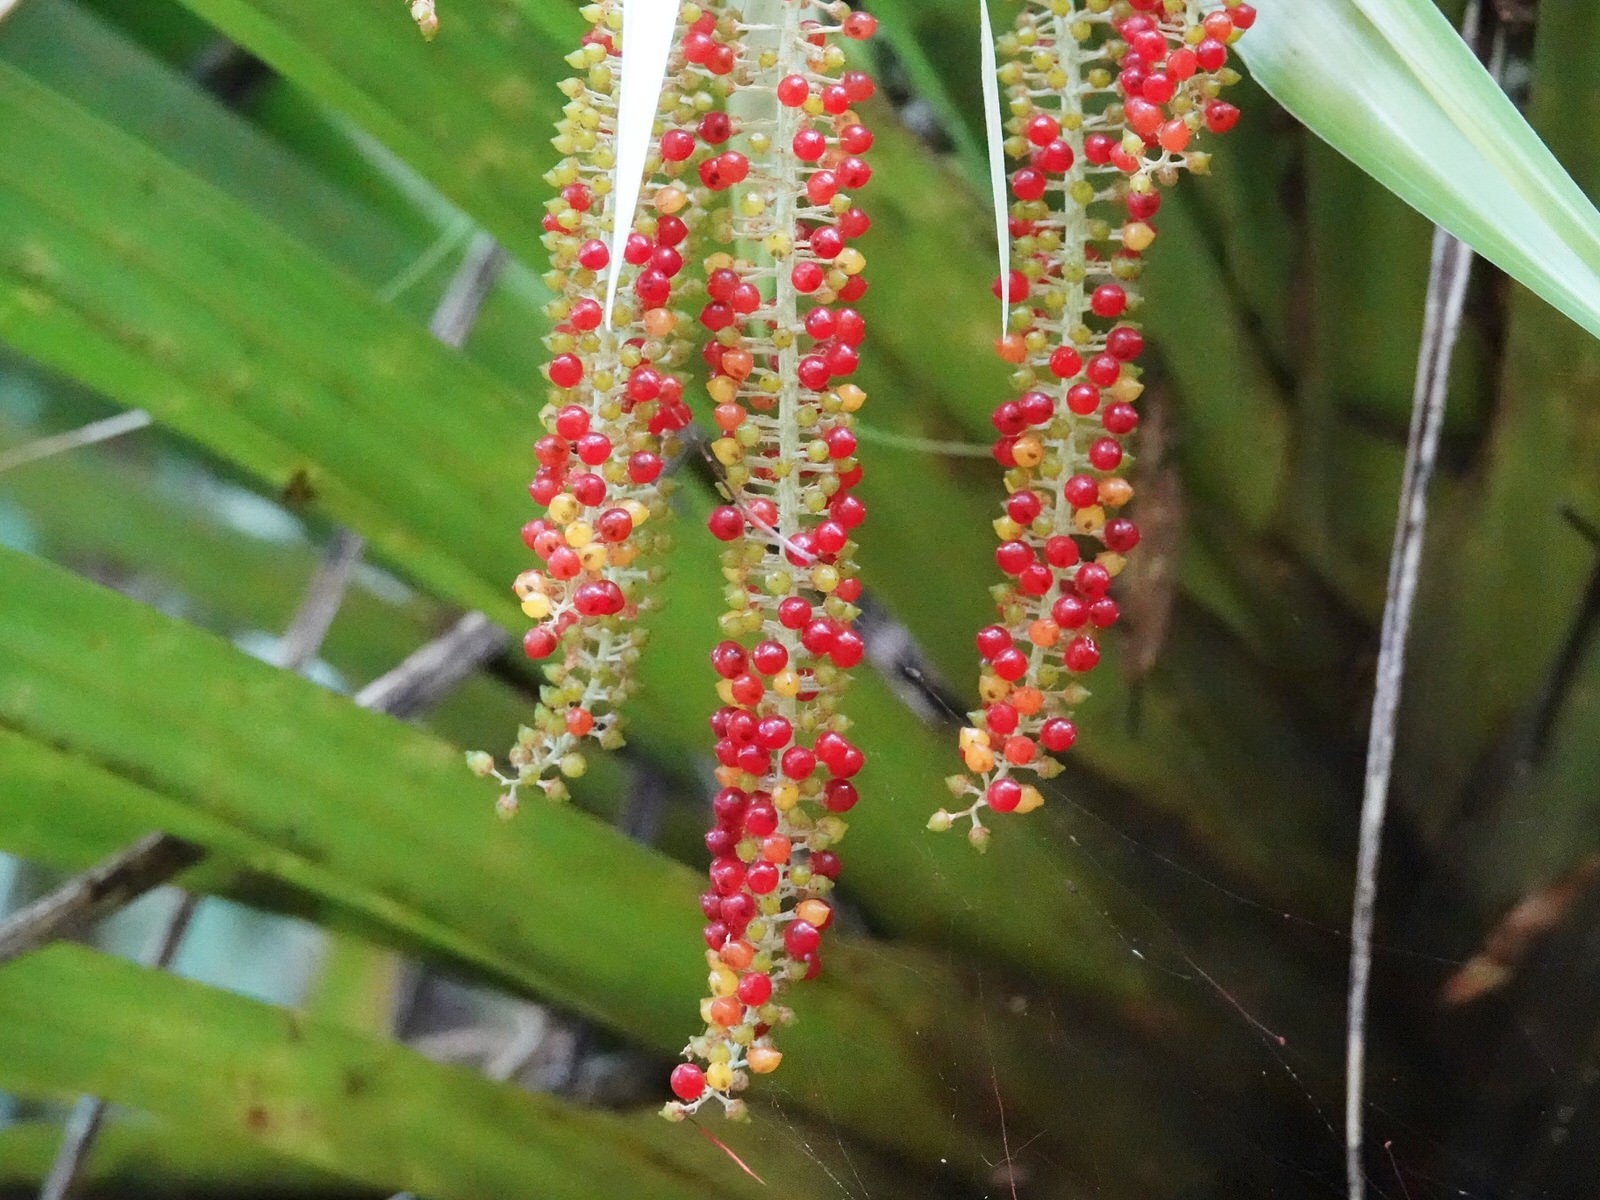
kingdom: Plantae
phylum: Tracheophyta
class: Liliopsida
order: Asparagales
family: Asteliaceae
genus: Astelia
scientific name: Astelia hastata
